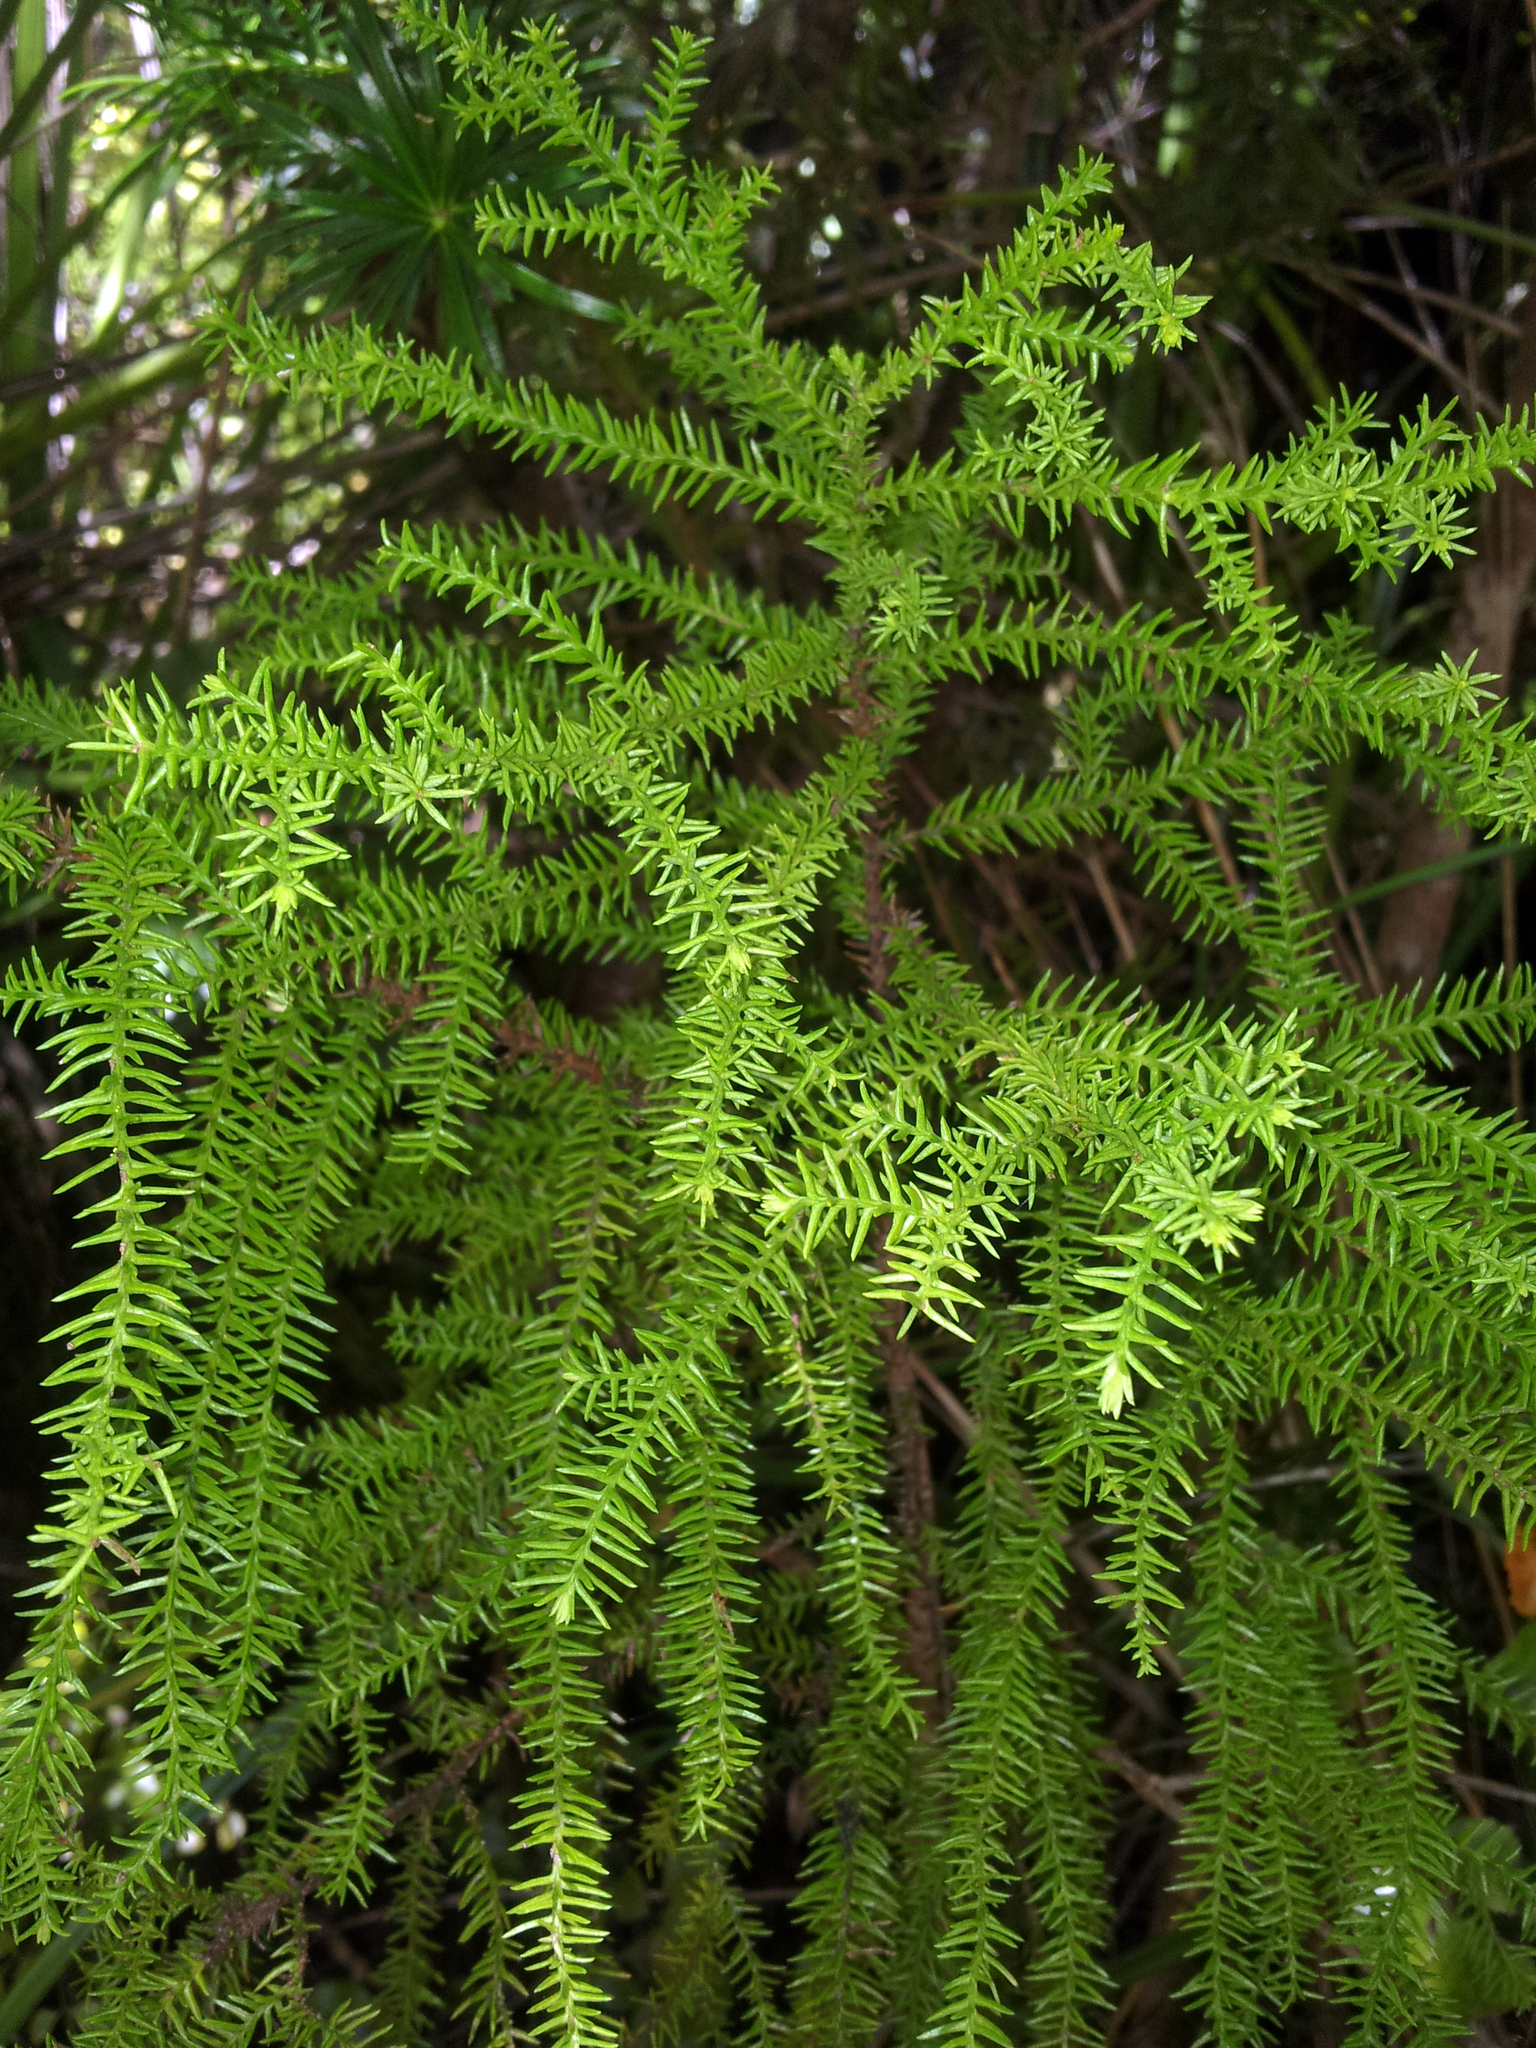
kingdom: Plantae
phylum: Tracheophyta
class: Pinopsida
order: Pinales
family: Podocarpaceae
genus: Lepidothamnus
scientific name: Lepidothamnus intermedius
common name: Yellow silver pine
